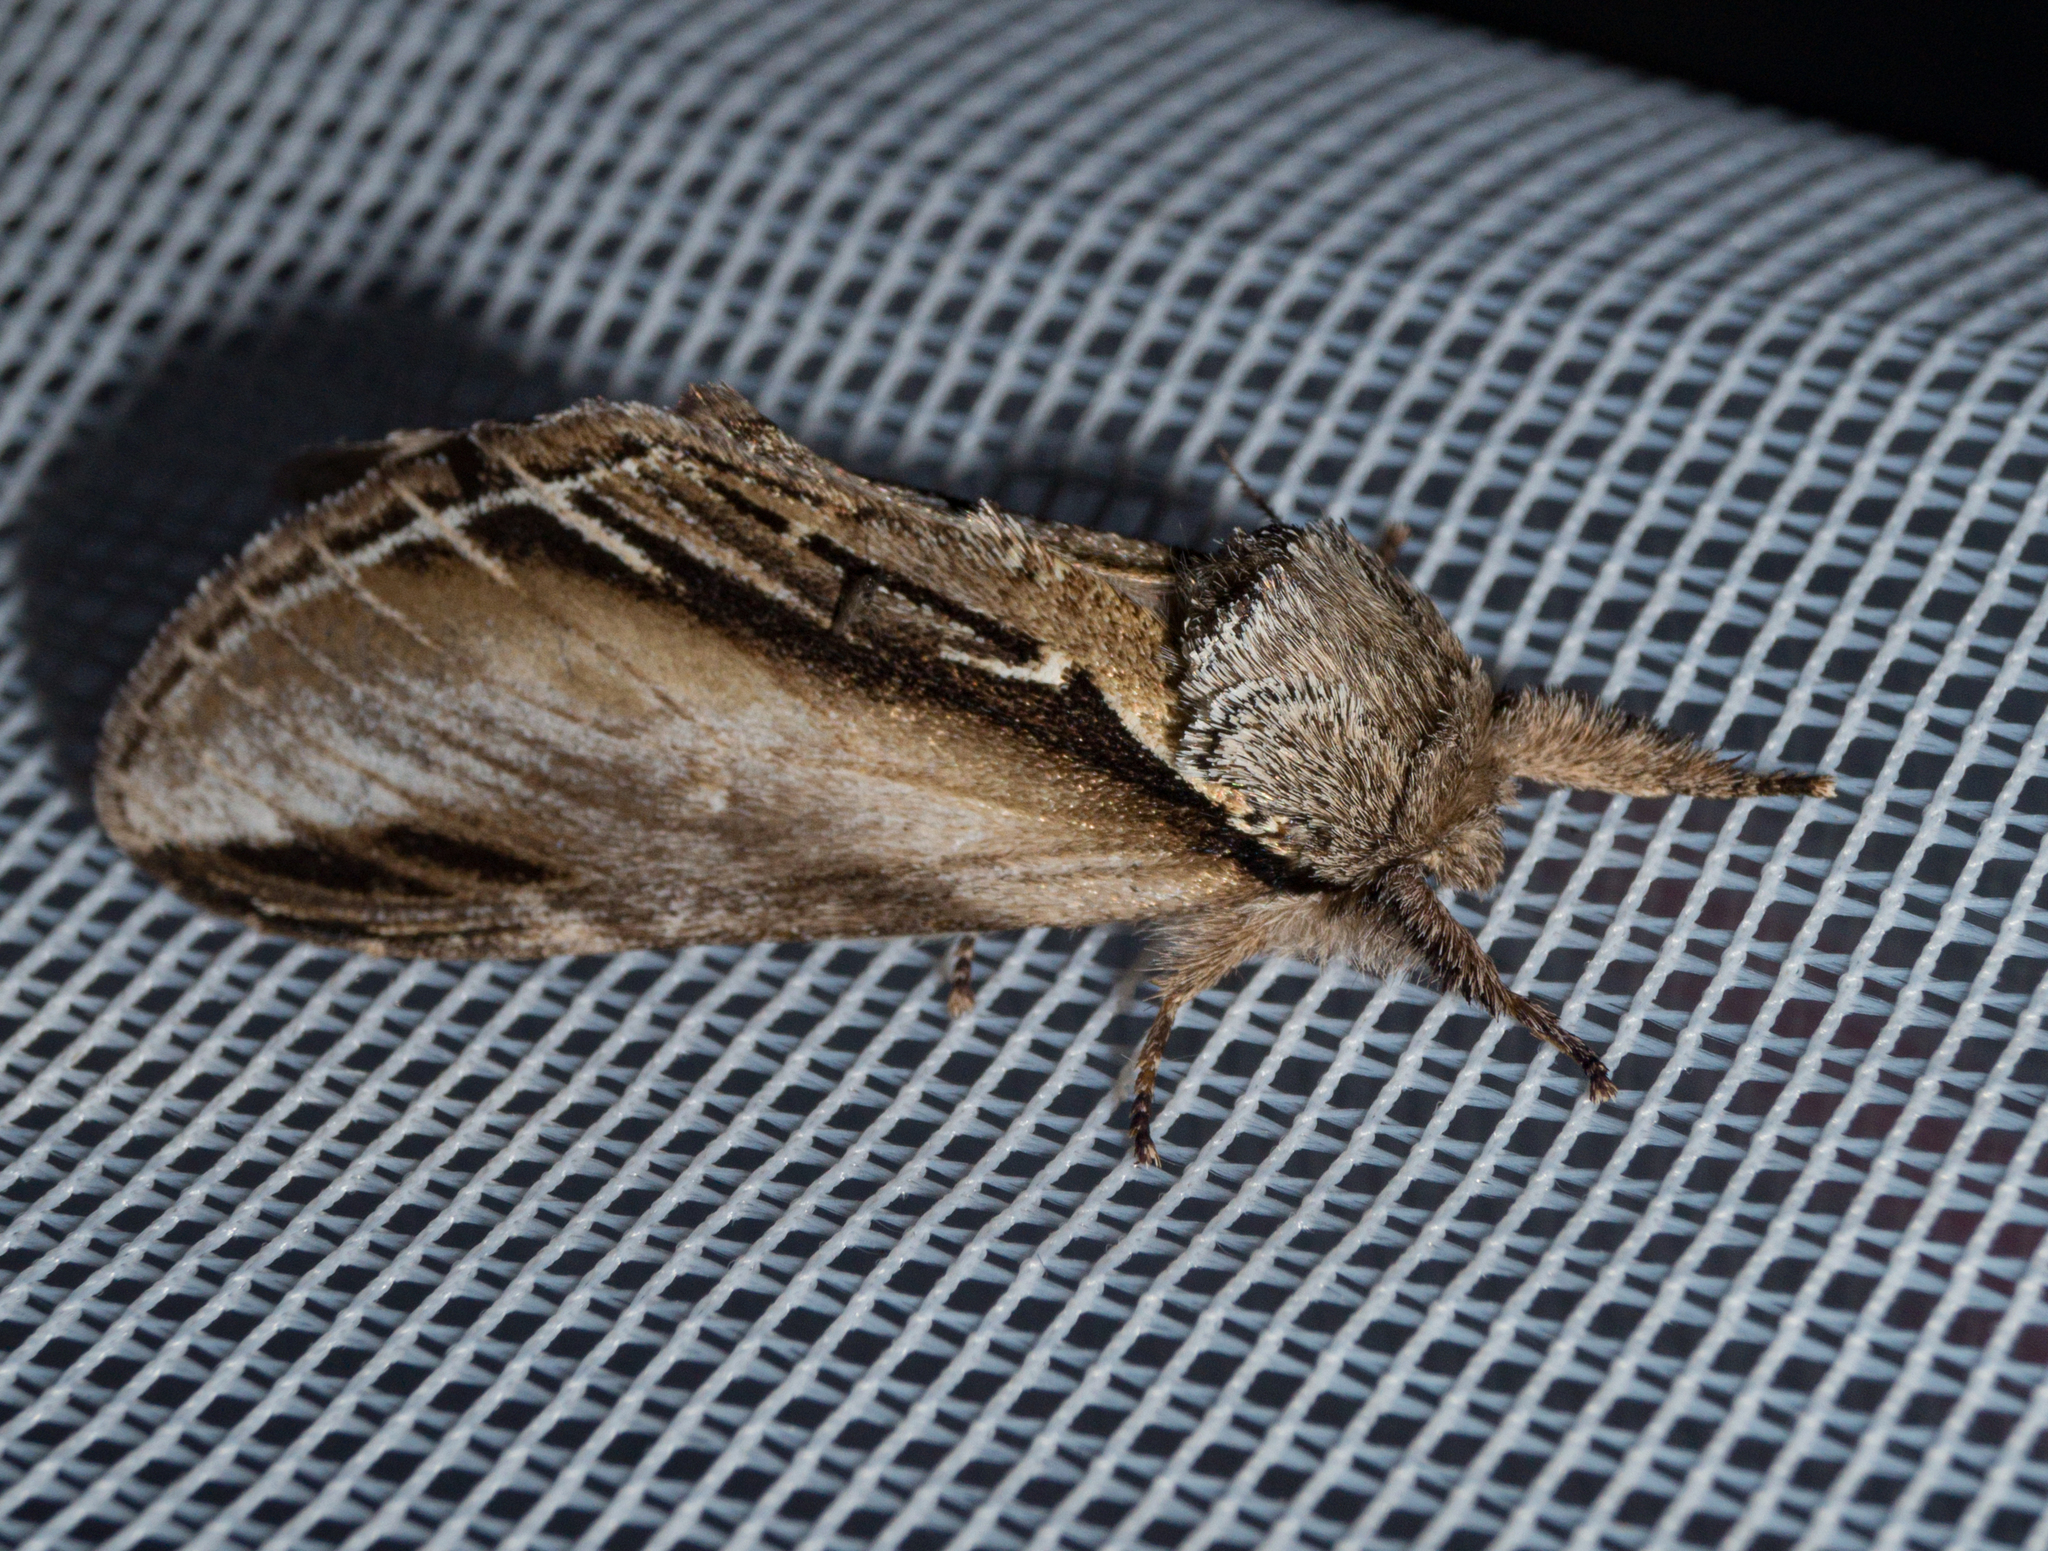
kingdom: Animalia
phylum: Arthropoda
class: Insecta
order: Lepidoptera
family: Notodontidae
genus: Pheosia
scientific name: Pheosia tremula
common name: Swallow prominent
